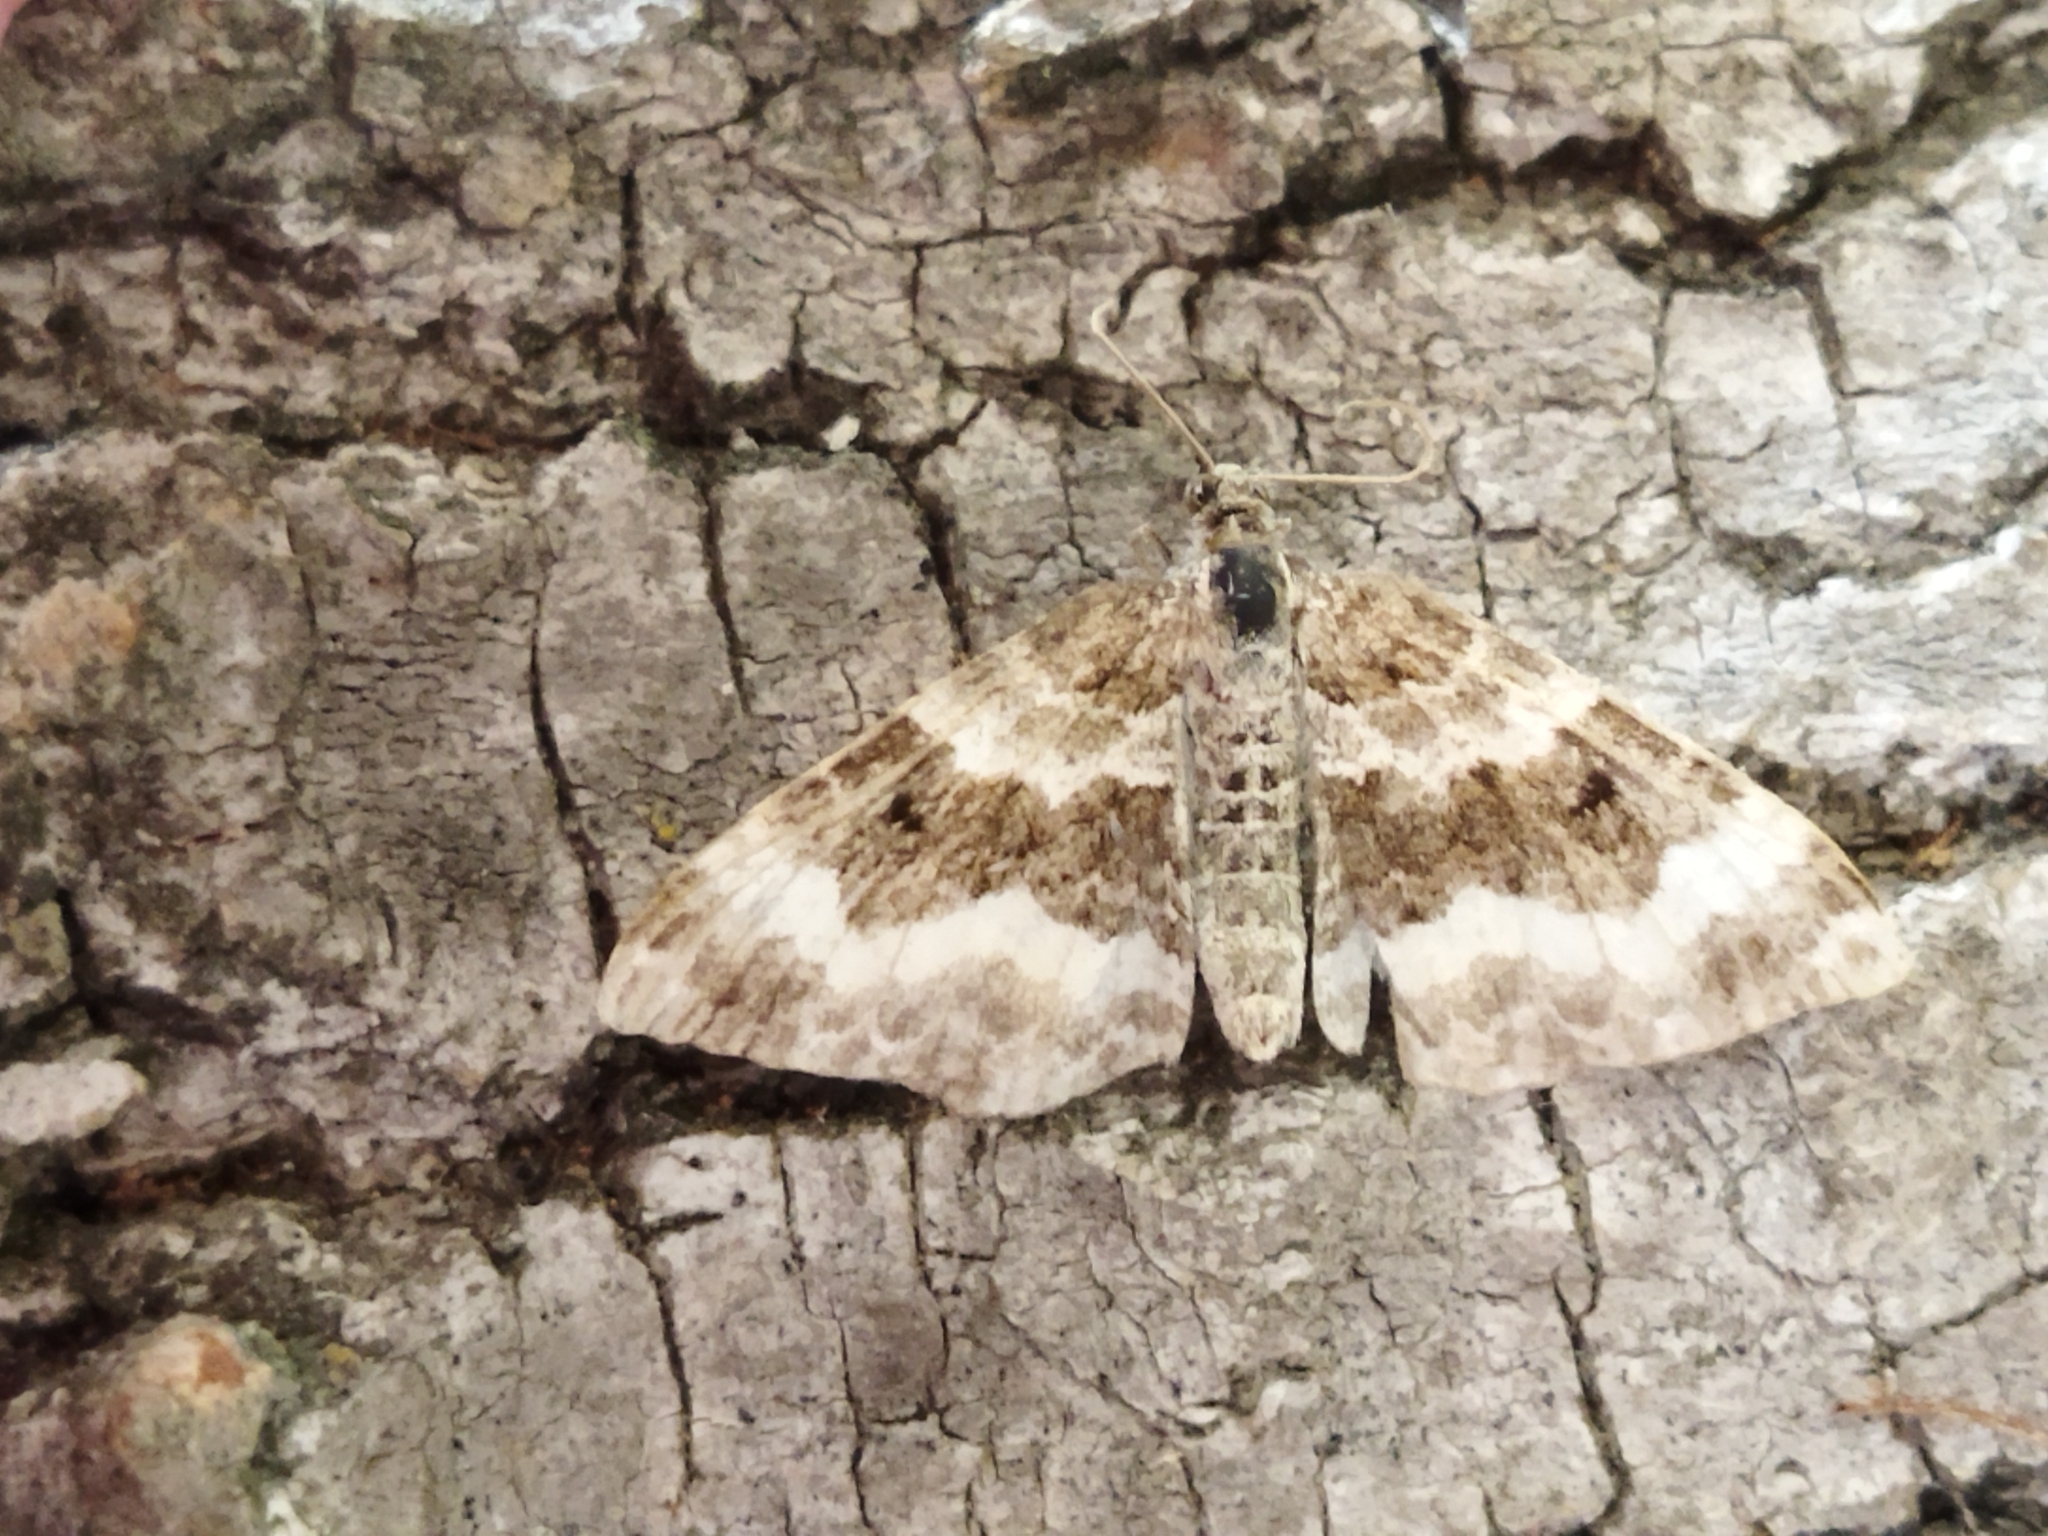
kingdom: Animalia
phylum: Arthropoda
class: Insecta
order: Lepidoptera
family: Geometridae
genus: Epirrhoe
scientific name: Epirrhoe alternata
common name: Common carpet
